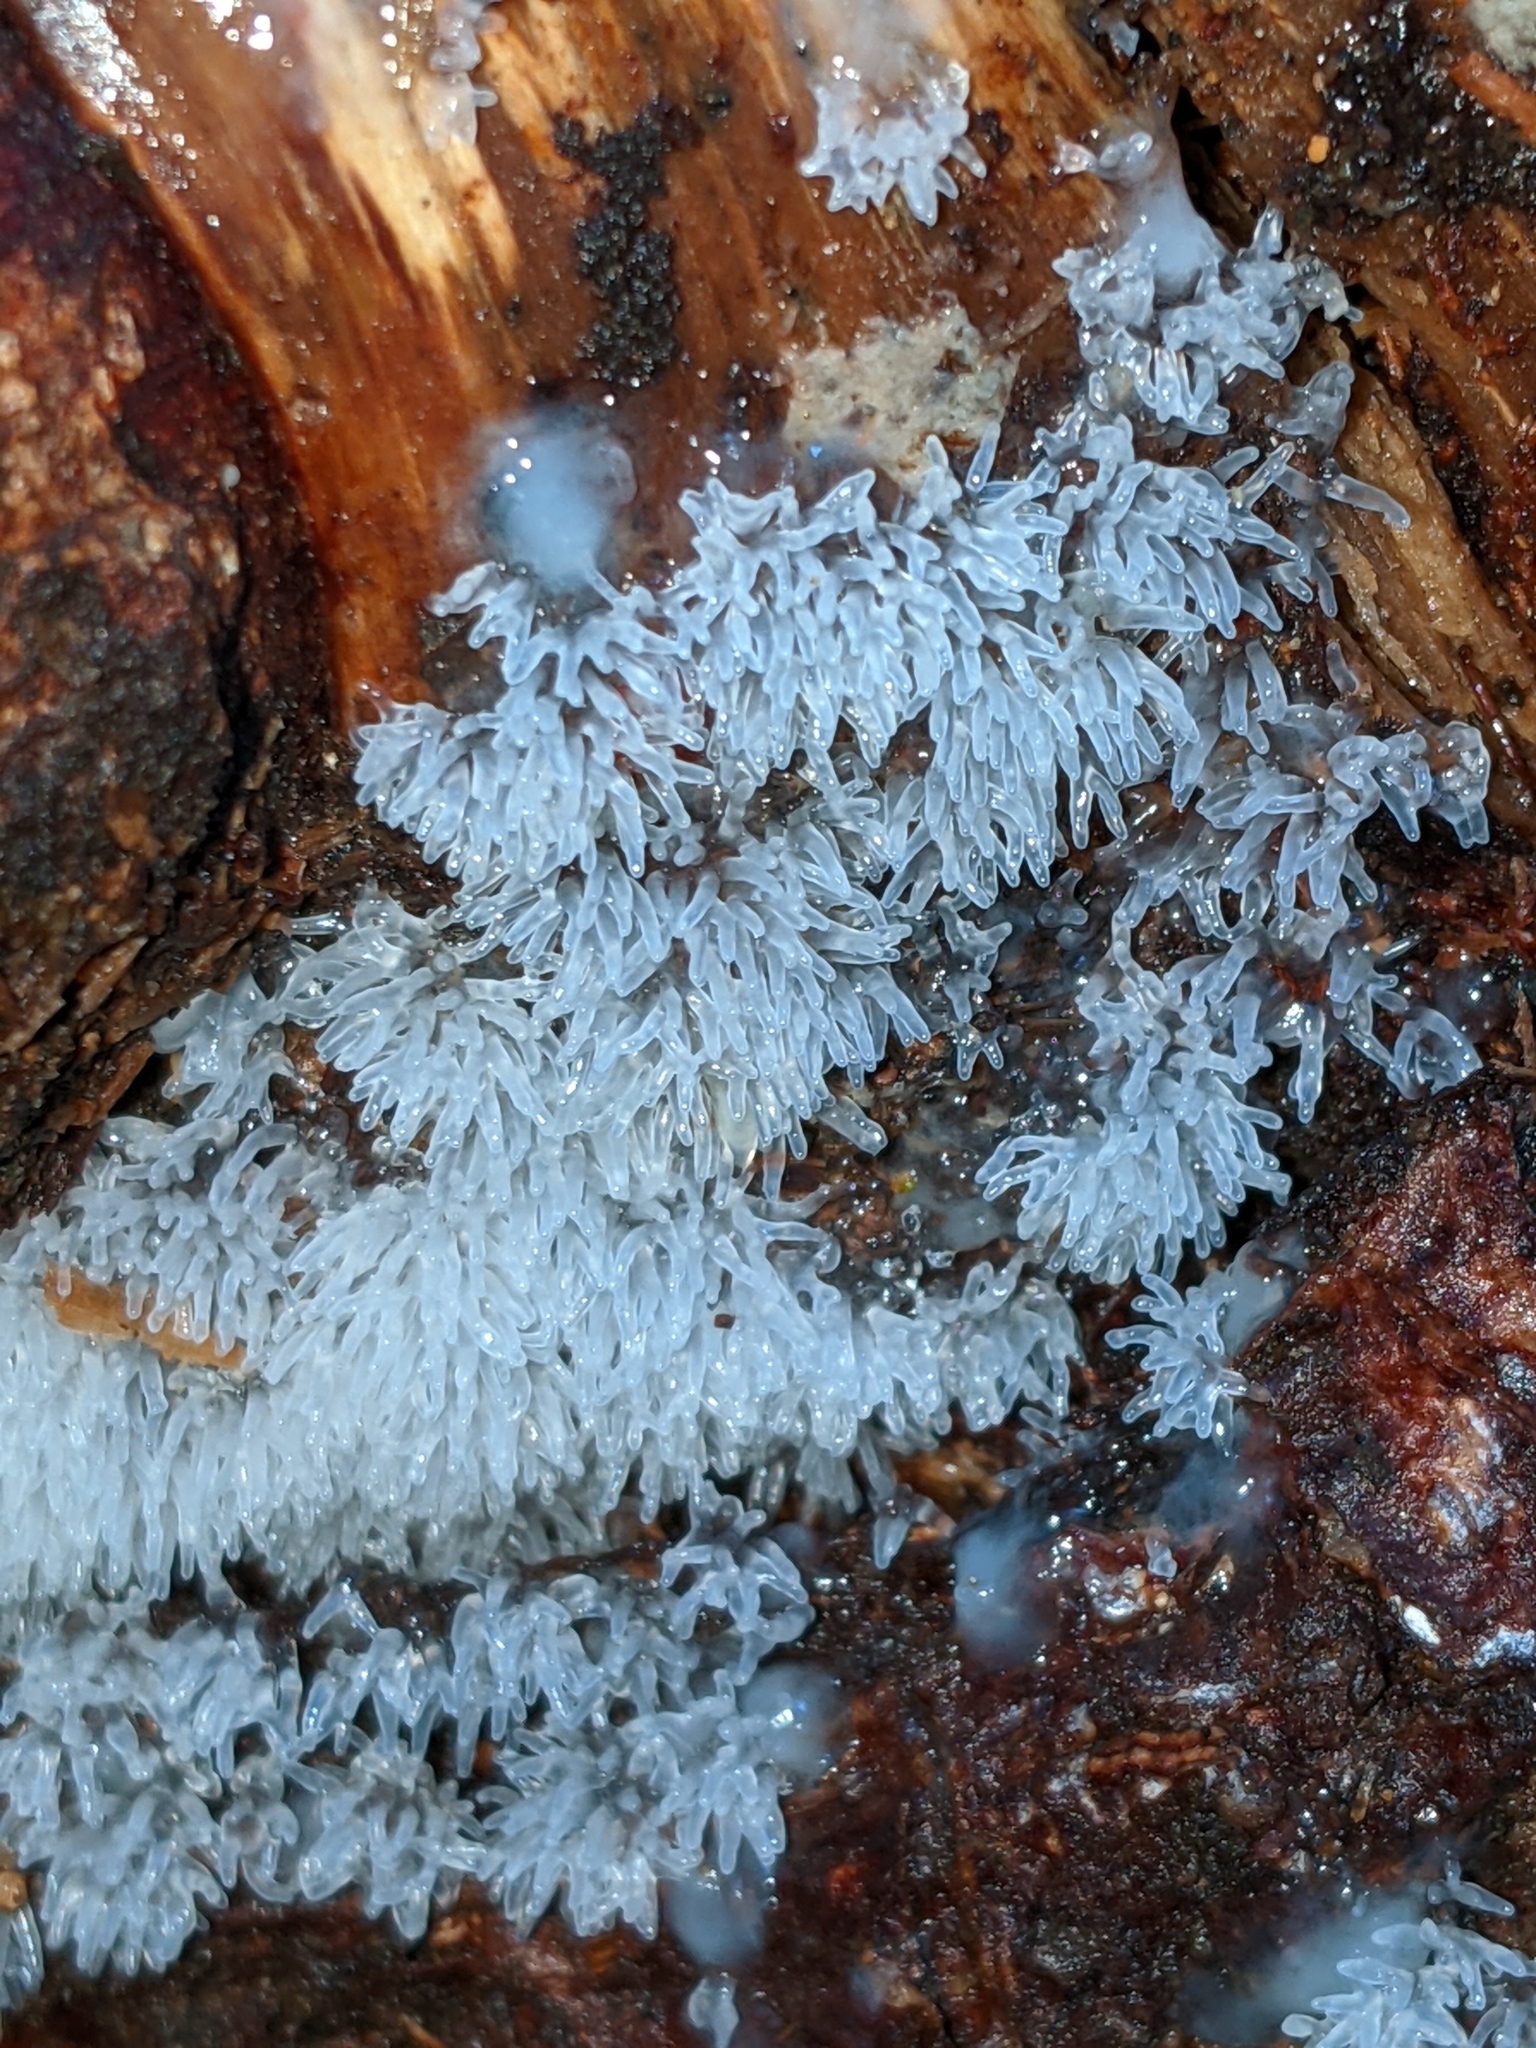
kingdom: Protozoa
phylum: Mycetozoa
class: Protosteliomycetes
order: Ceratiomyxales
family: Ceratiomyxaceae
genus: Ceratiomyxa
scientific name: Ceratiomyxa fruticulosa
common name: Honeycomb coral slime mold
